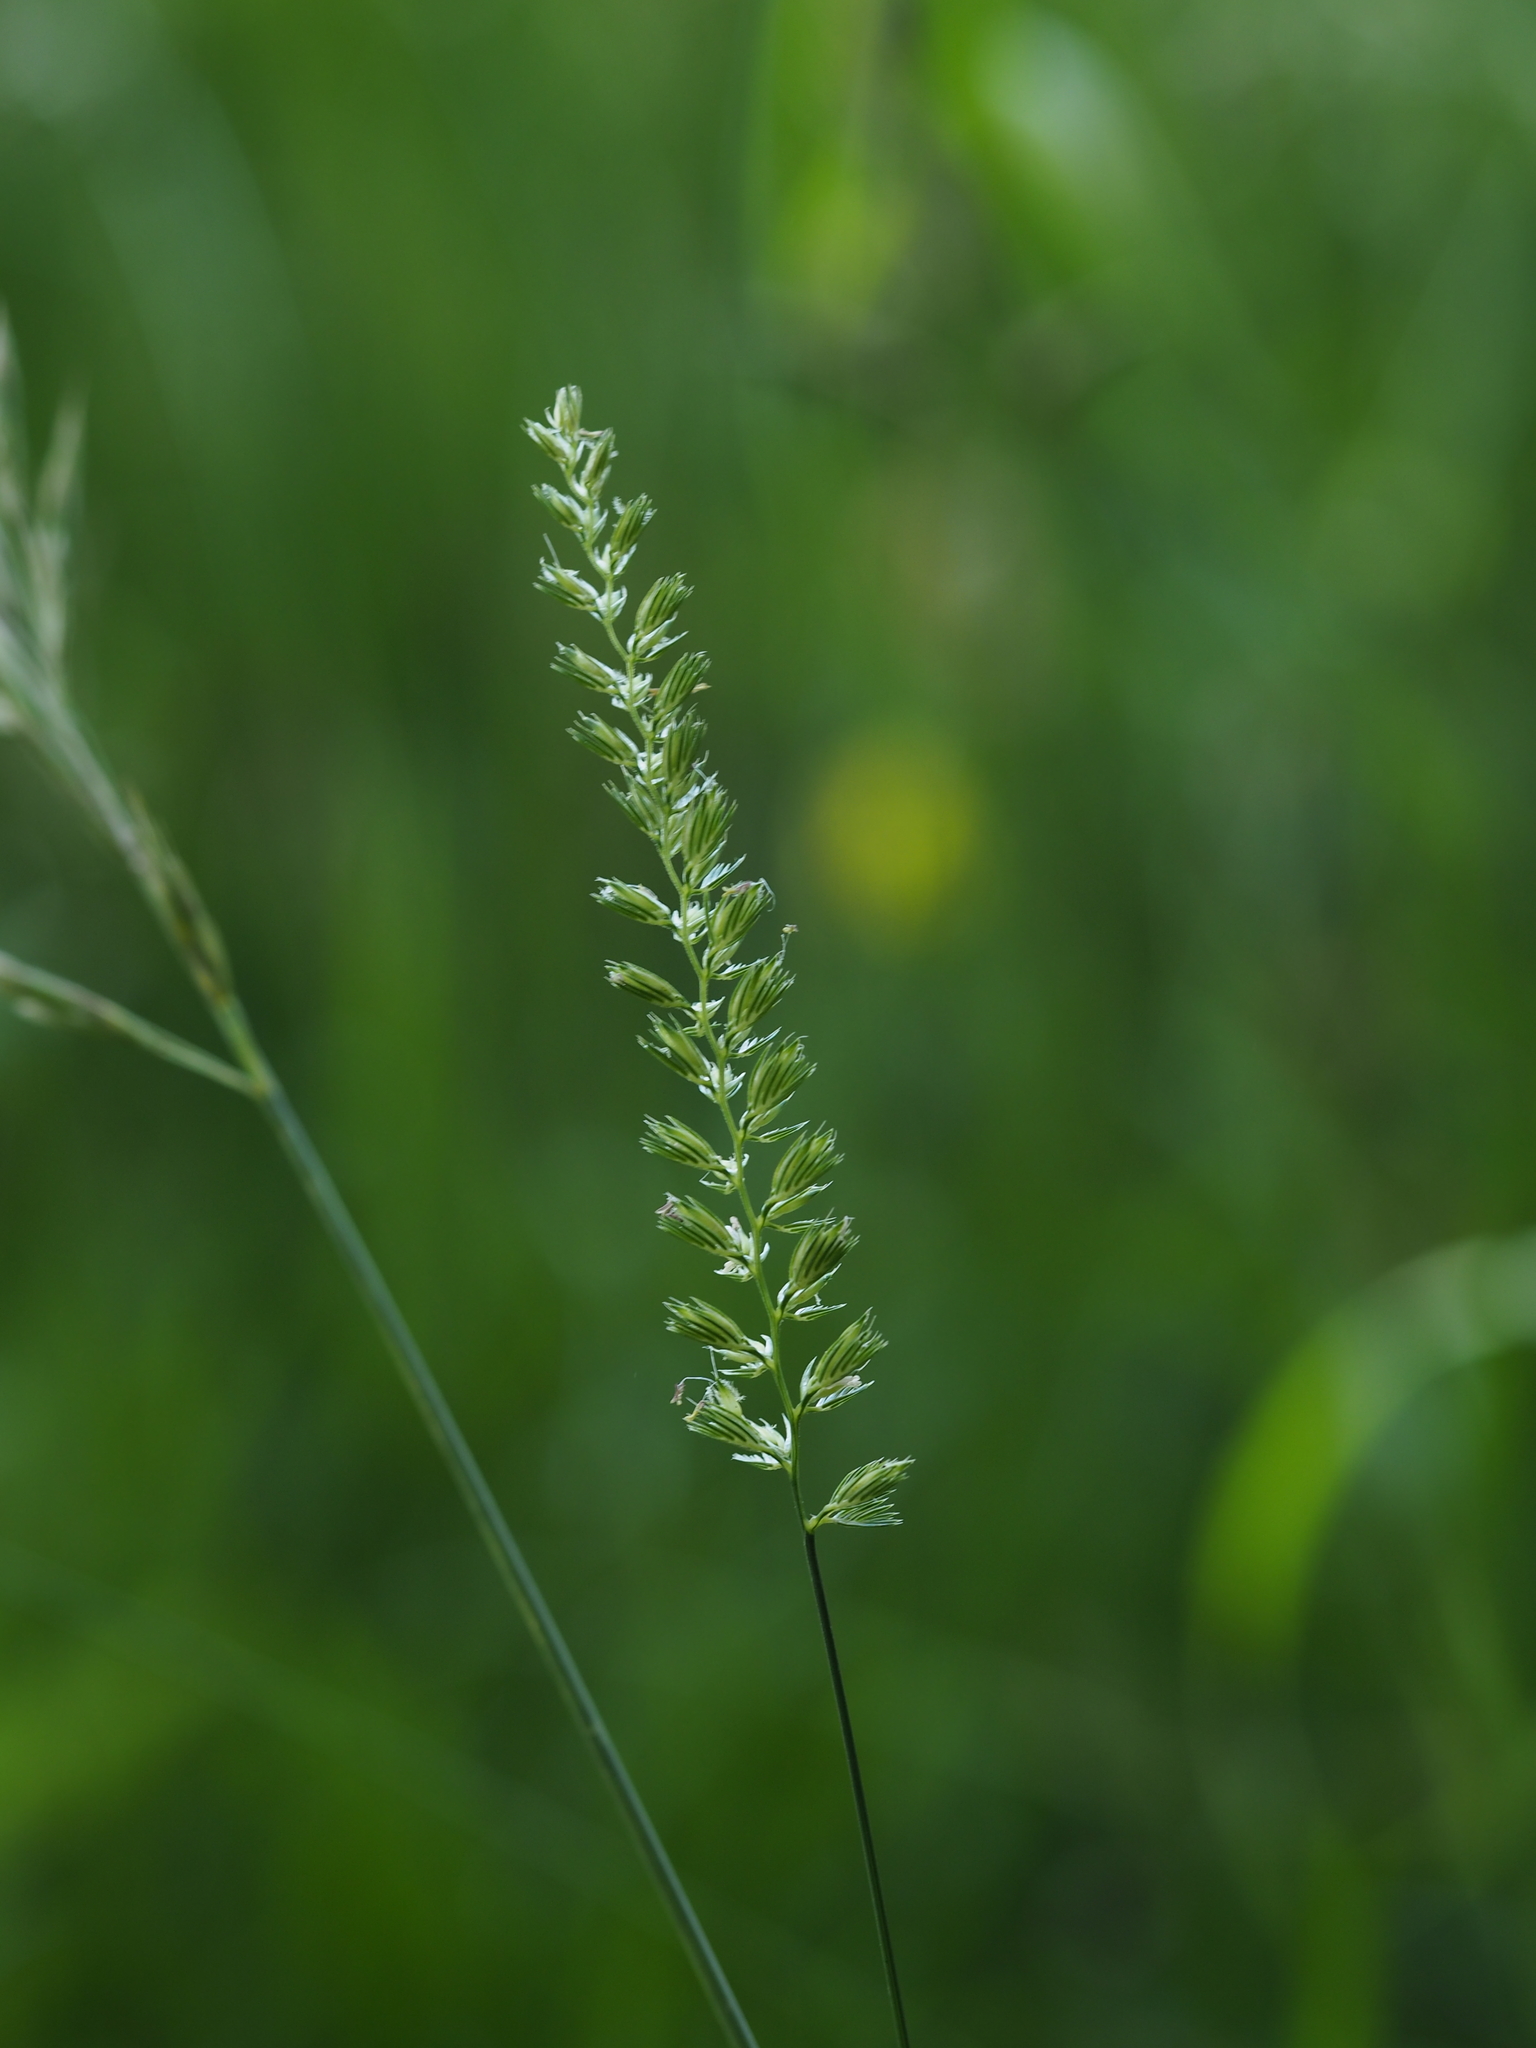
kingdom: Plantae
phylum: Tracheophyta
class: Liliopsida
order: Poales
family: Poaceae
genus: Cynosurus
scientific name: Cynosurus cristatus
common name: Crested dog's-tail
